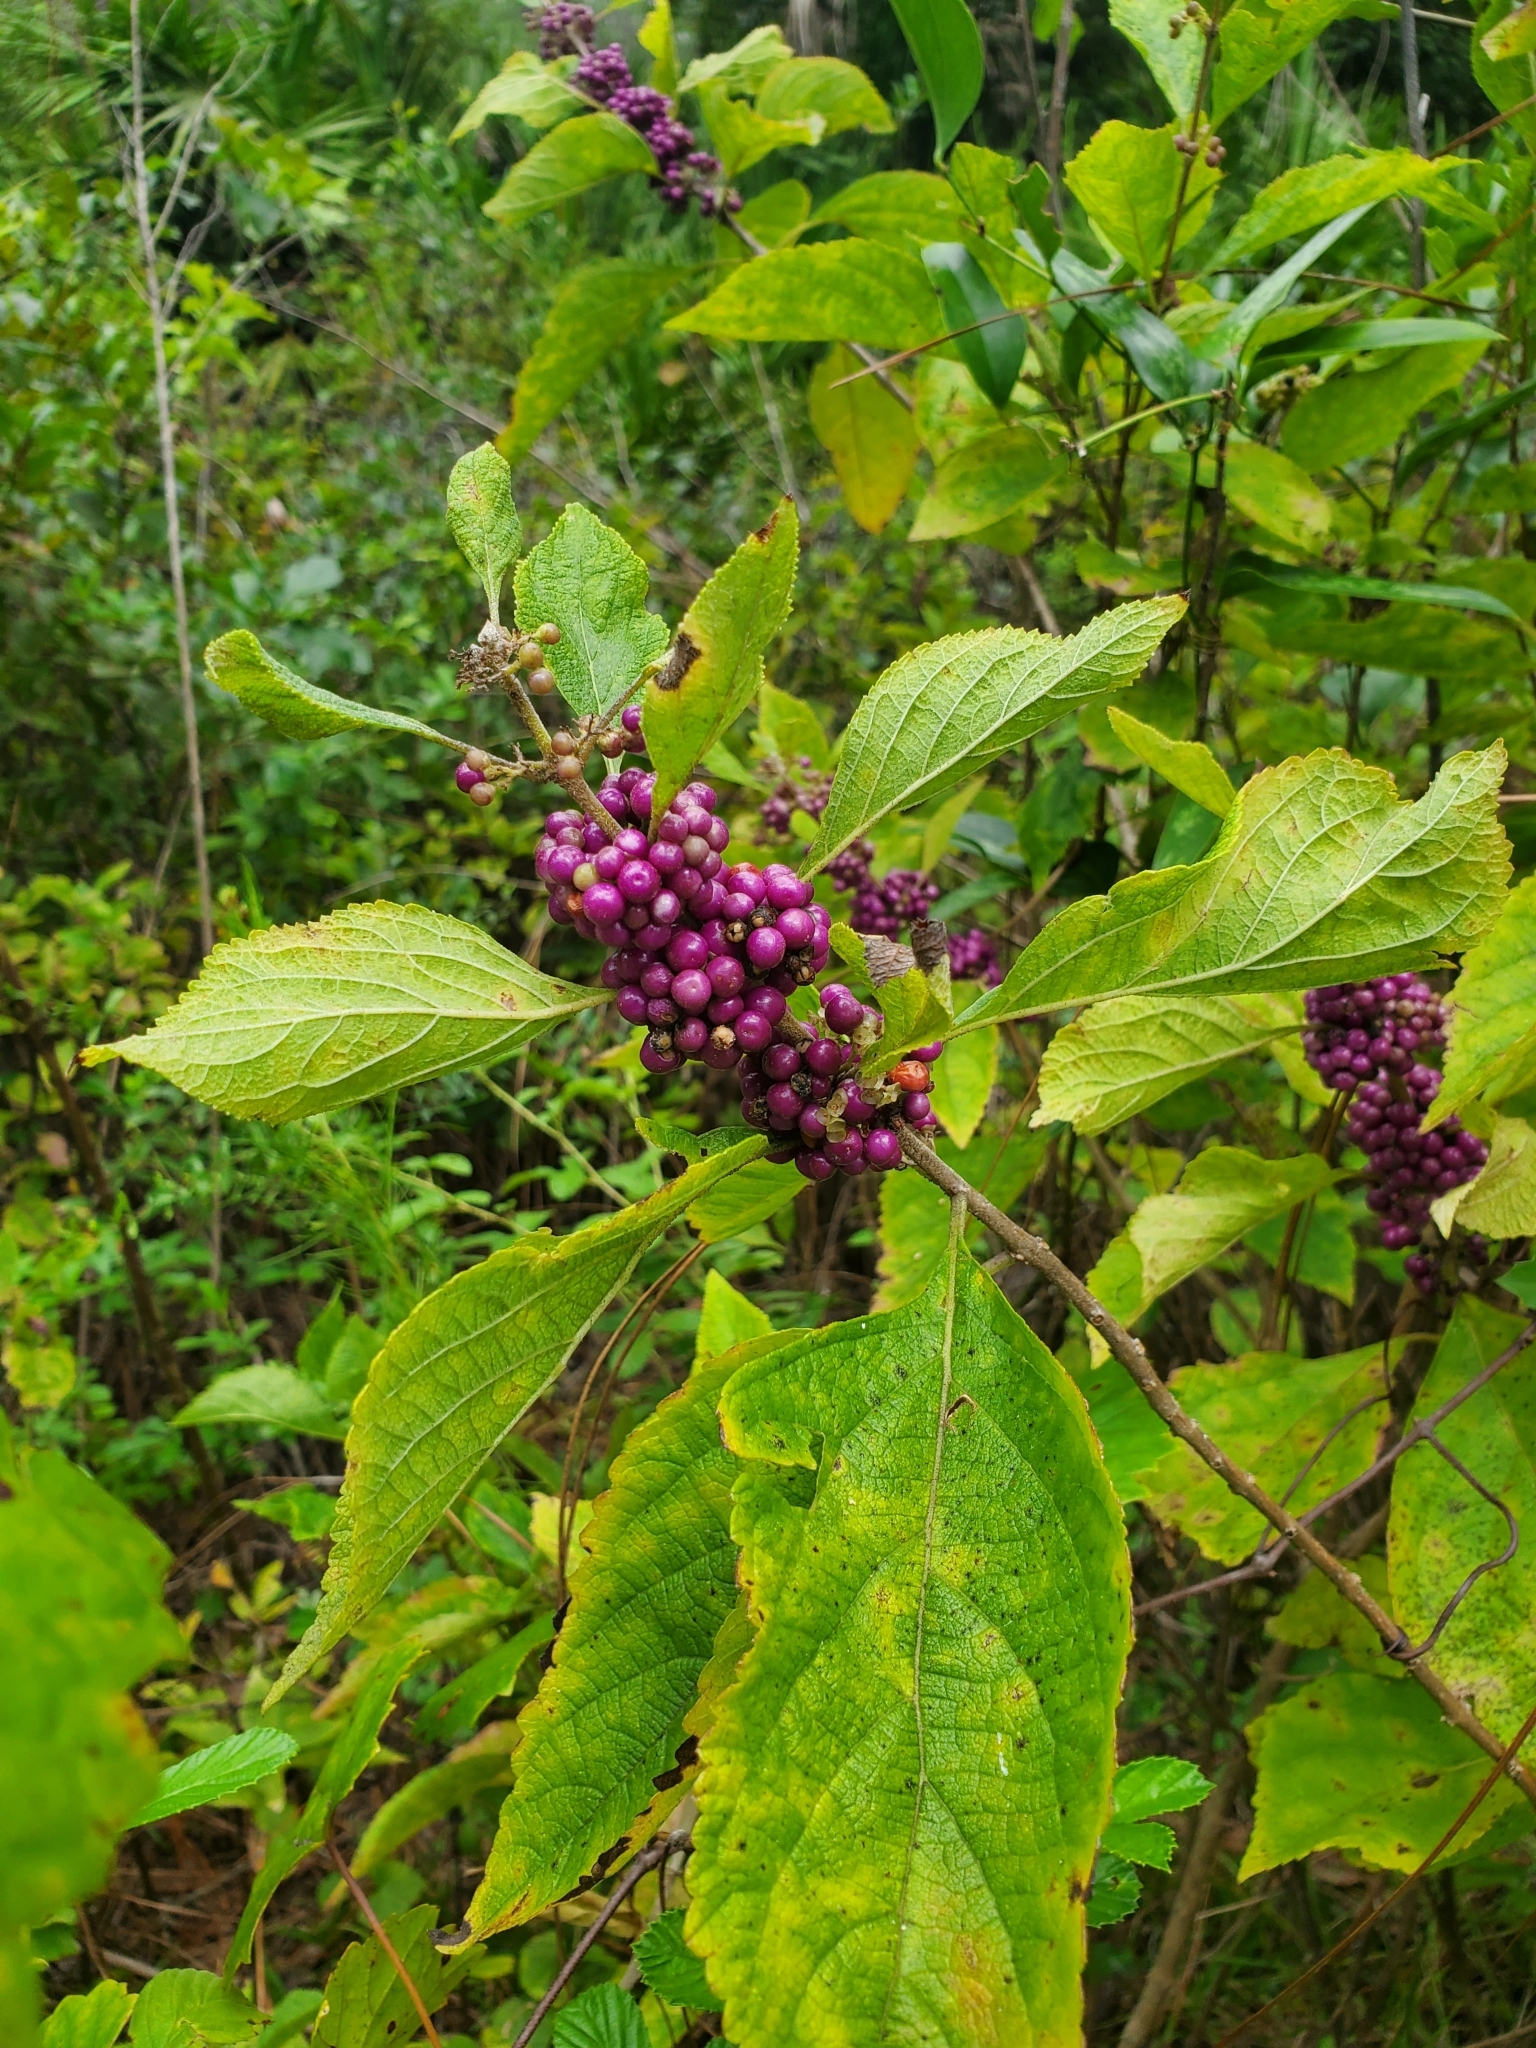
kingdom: Plantae
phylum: Tracheophyta
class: Magnoliopsida
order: Lamiales
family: Lamiaceae
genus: Callicarpa
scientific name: Callicarpa americana
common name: American beautyberry
